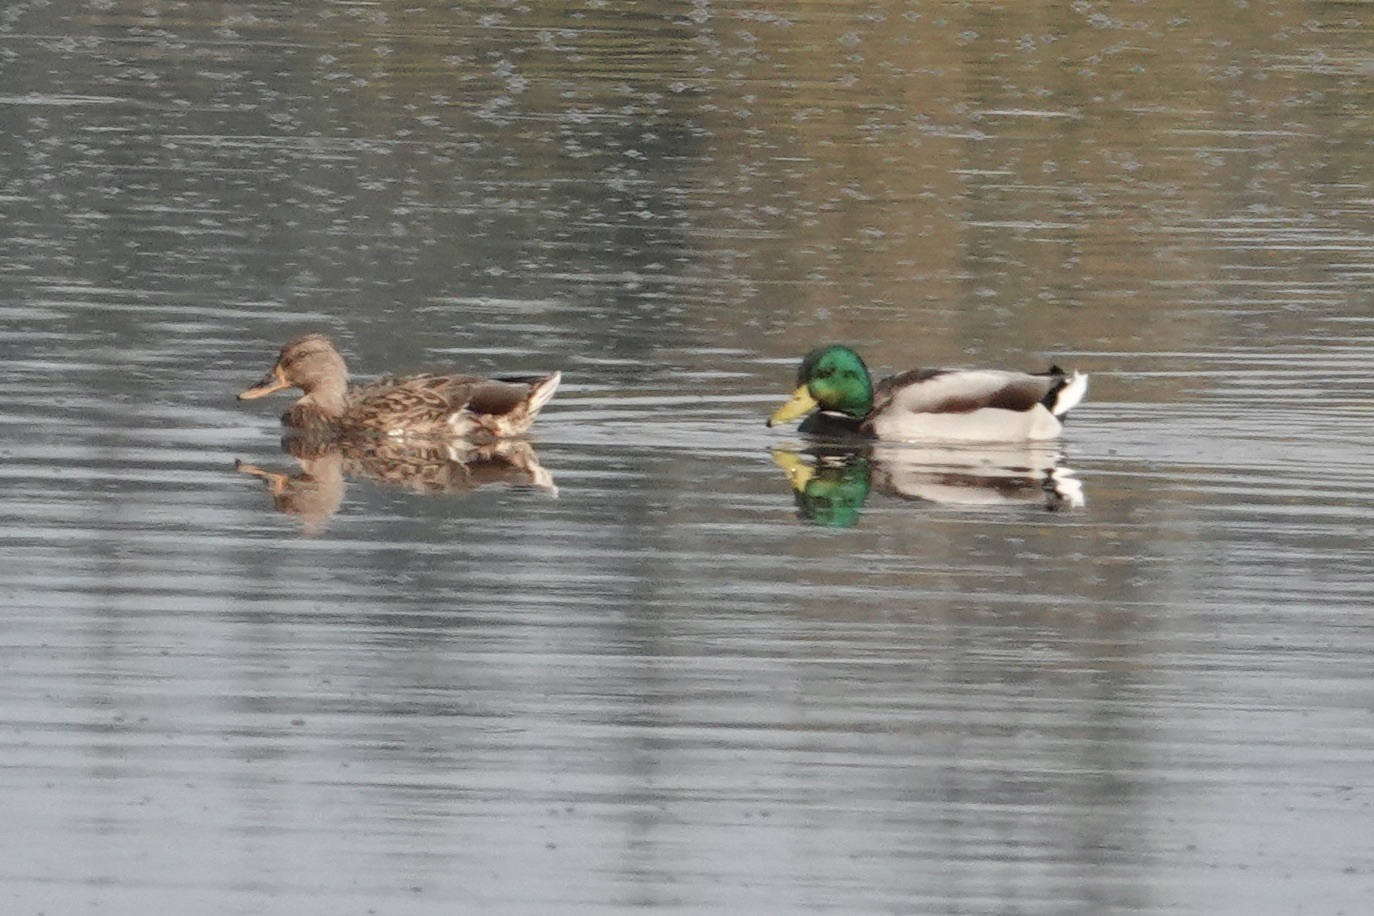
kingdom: Animalia
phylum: Chordata
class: Aves
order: Anseriformes
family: Anatidae
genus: Anas
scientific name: Anas platyrhynchos
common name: Mallard
